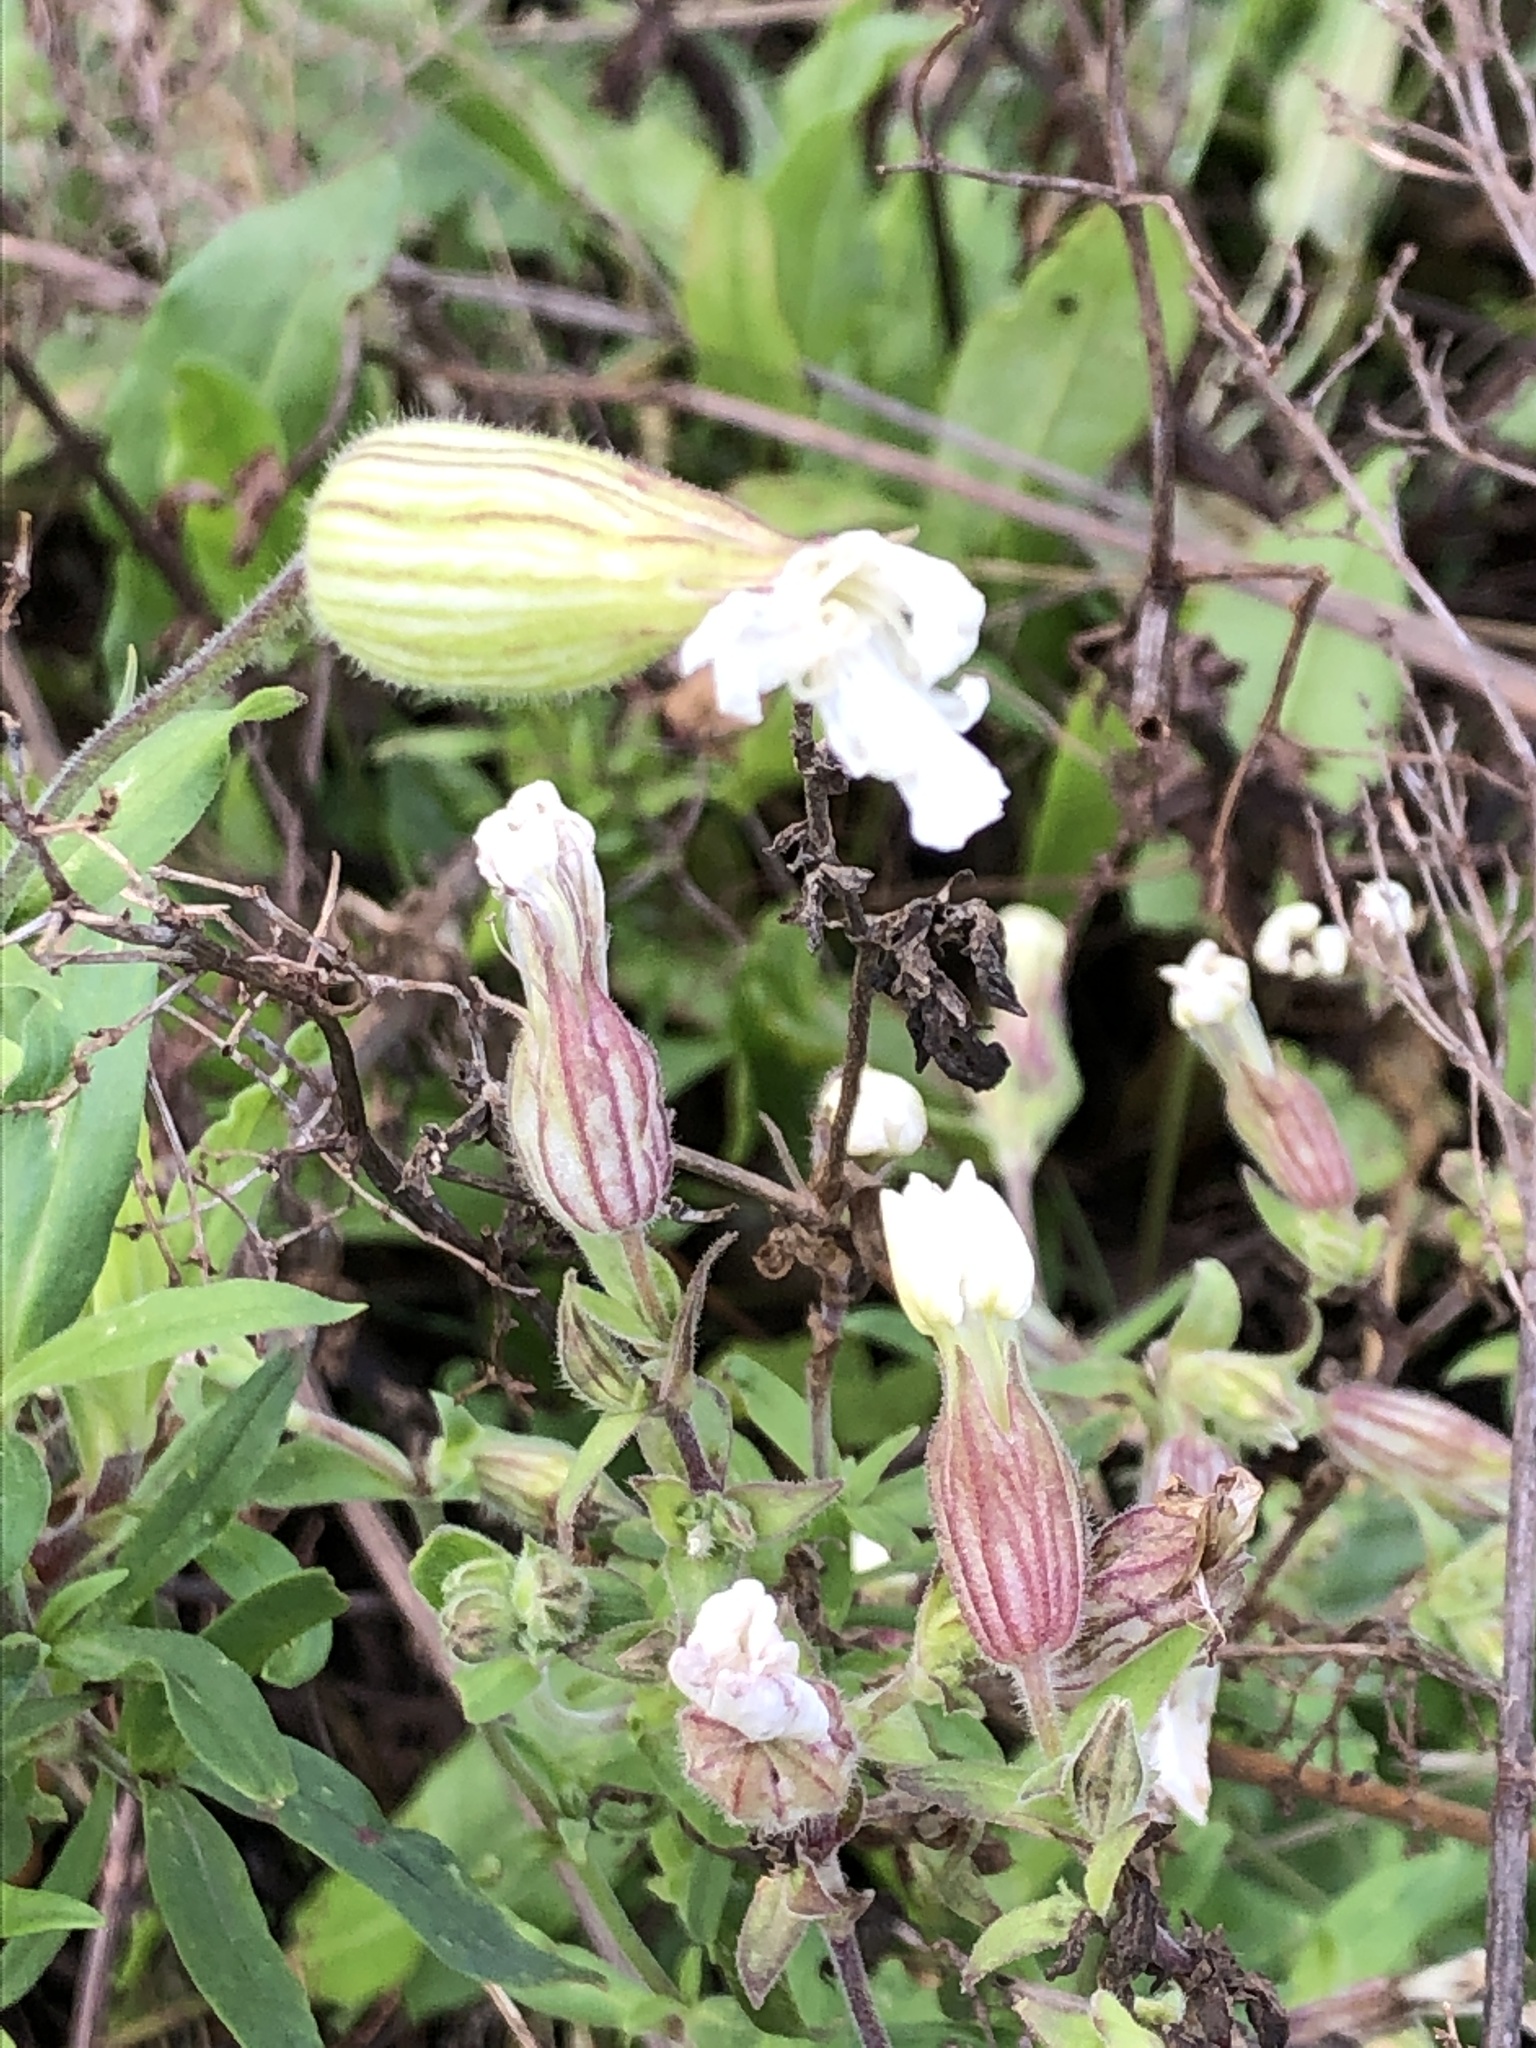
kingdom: Plantae
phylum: Tracheophyta
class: Magnoliopsida
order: Caryophyllales
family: Caryophyllaceae
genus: Silene
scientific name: Silene latifolia
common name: White campion
